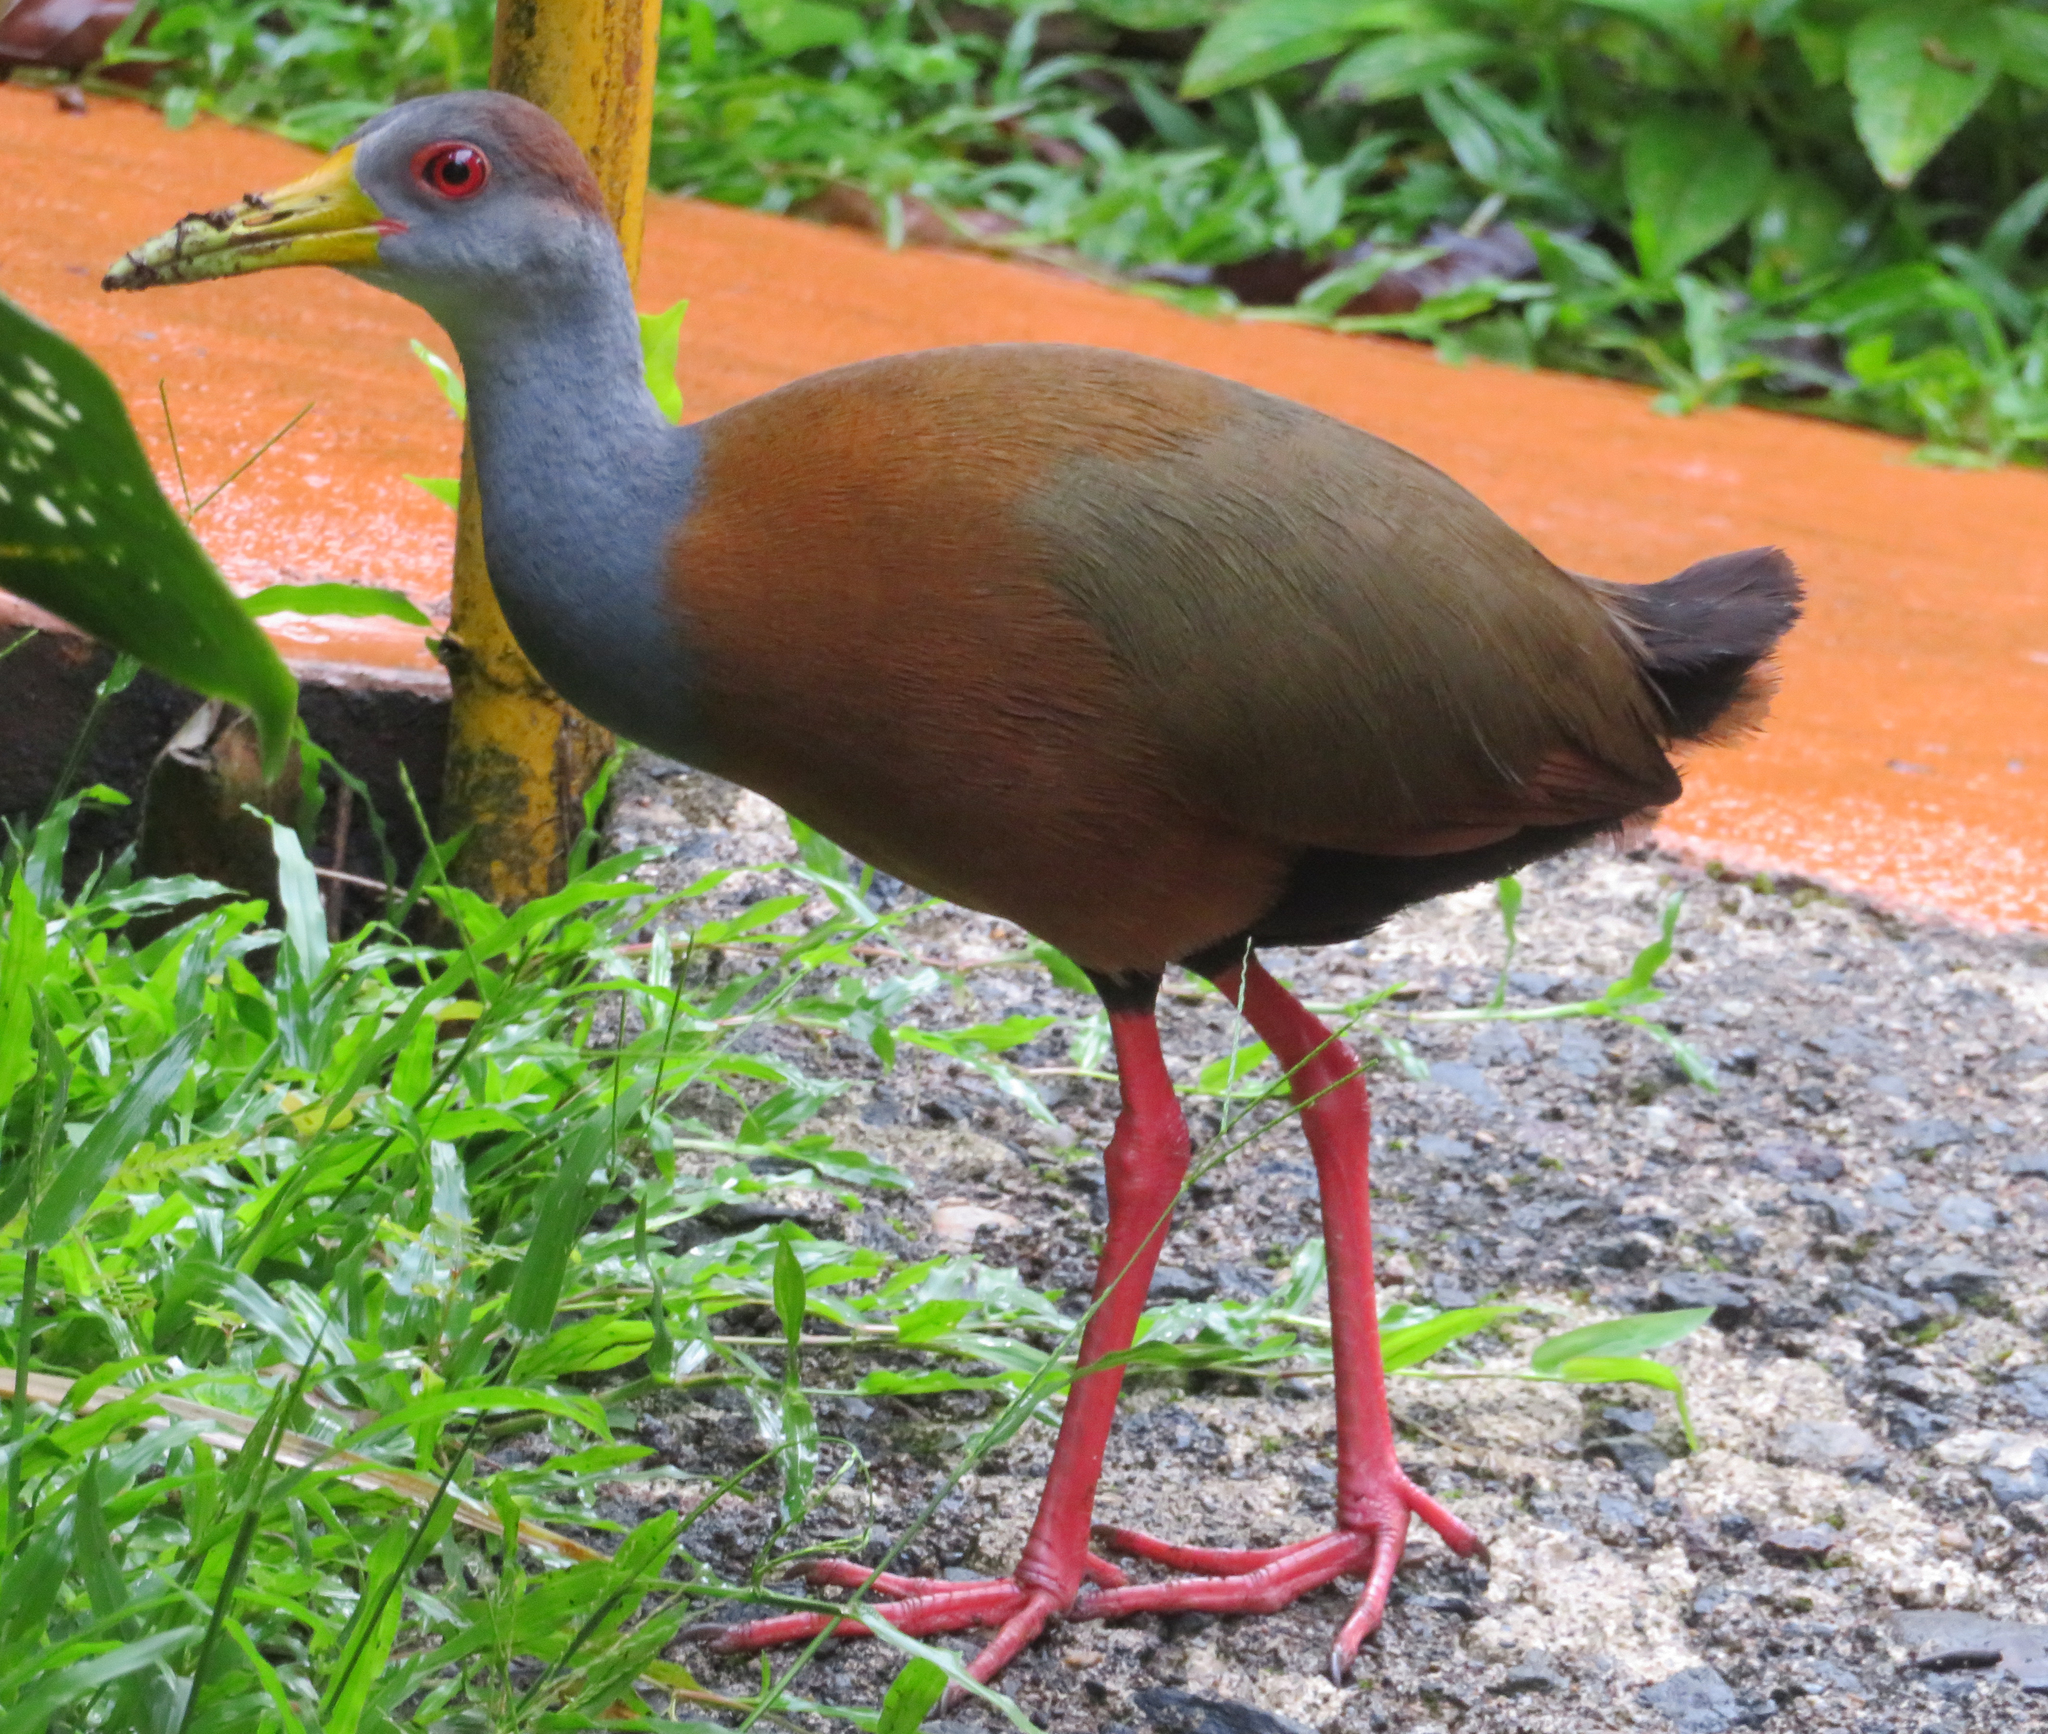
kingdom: Animalia
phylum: Chordata
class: Aves
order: Gruiformes
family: Rallidae
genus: Aramides
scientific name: Aramides albiventris
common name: Russet-naped wood-rail
